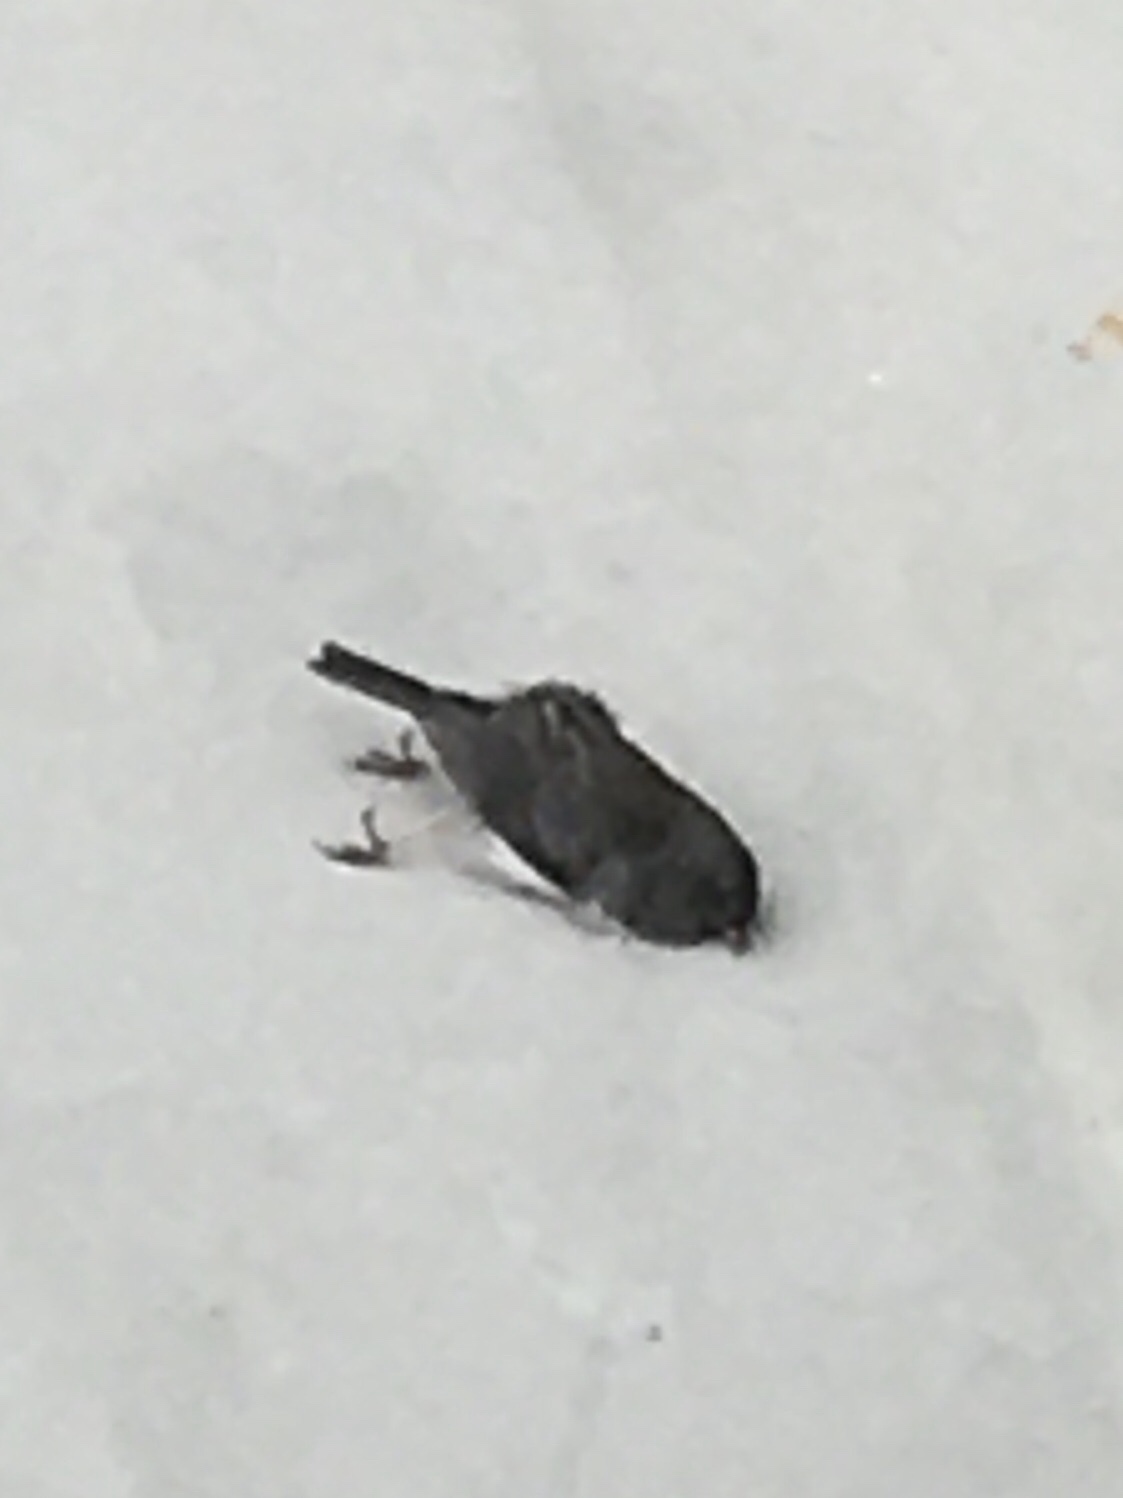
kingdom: Animalia
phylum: Chordata
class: Aves
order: Passeriformes
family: Passerellidae
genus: Junco
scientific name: Junco hyemalis
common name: Dark-eyed junco
